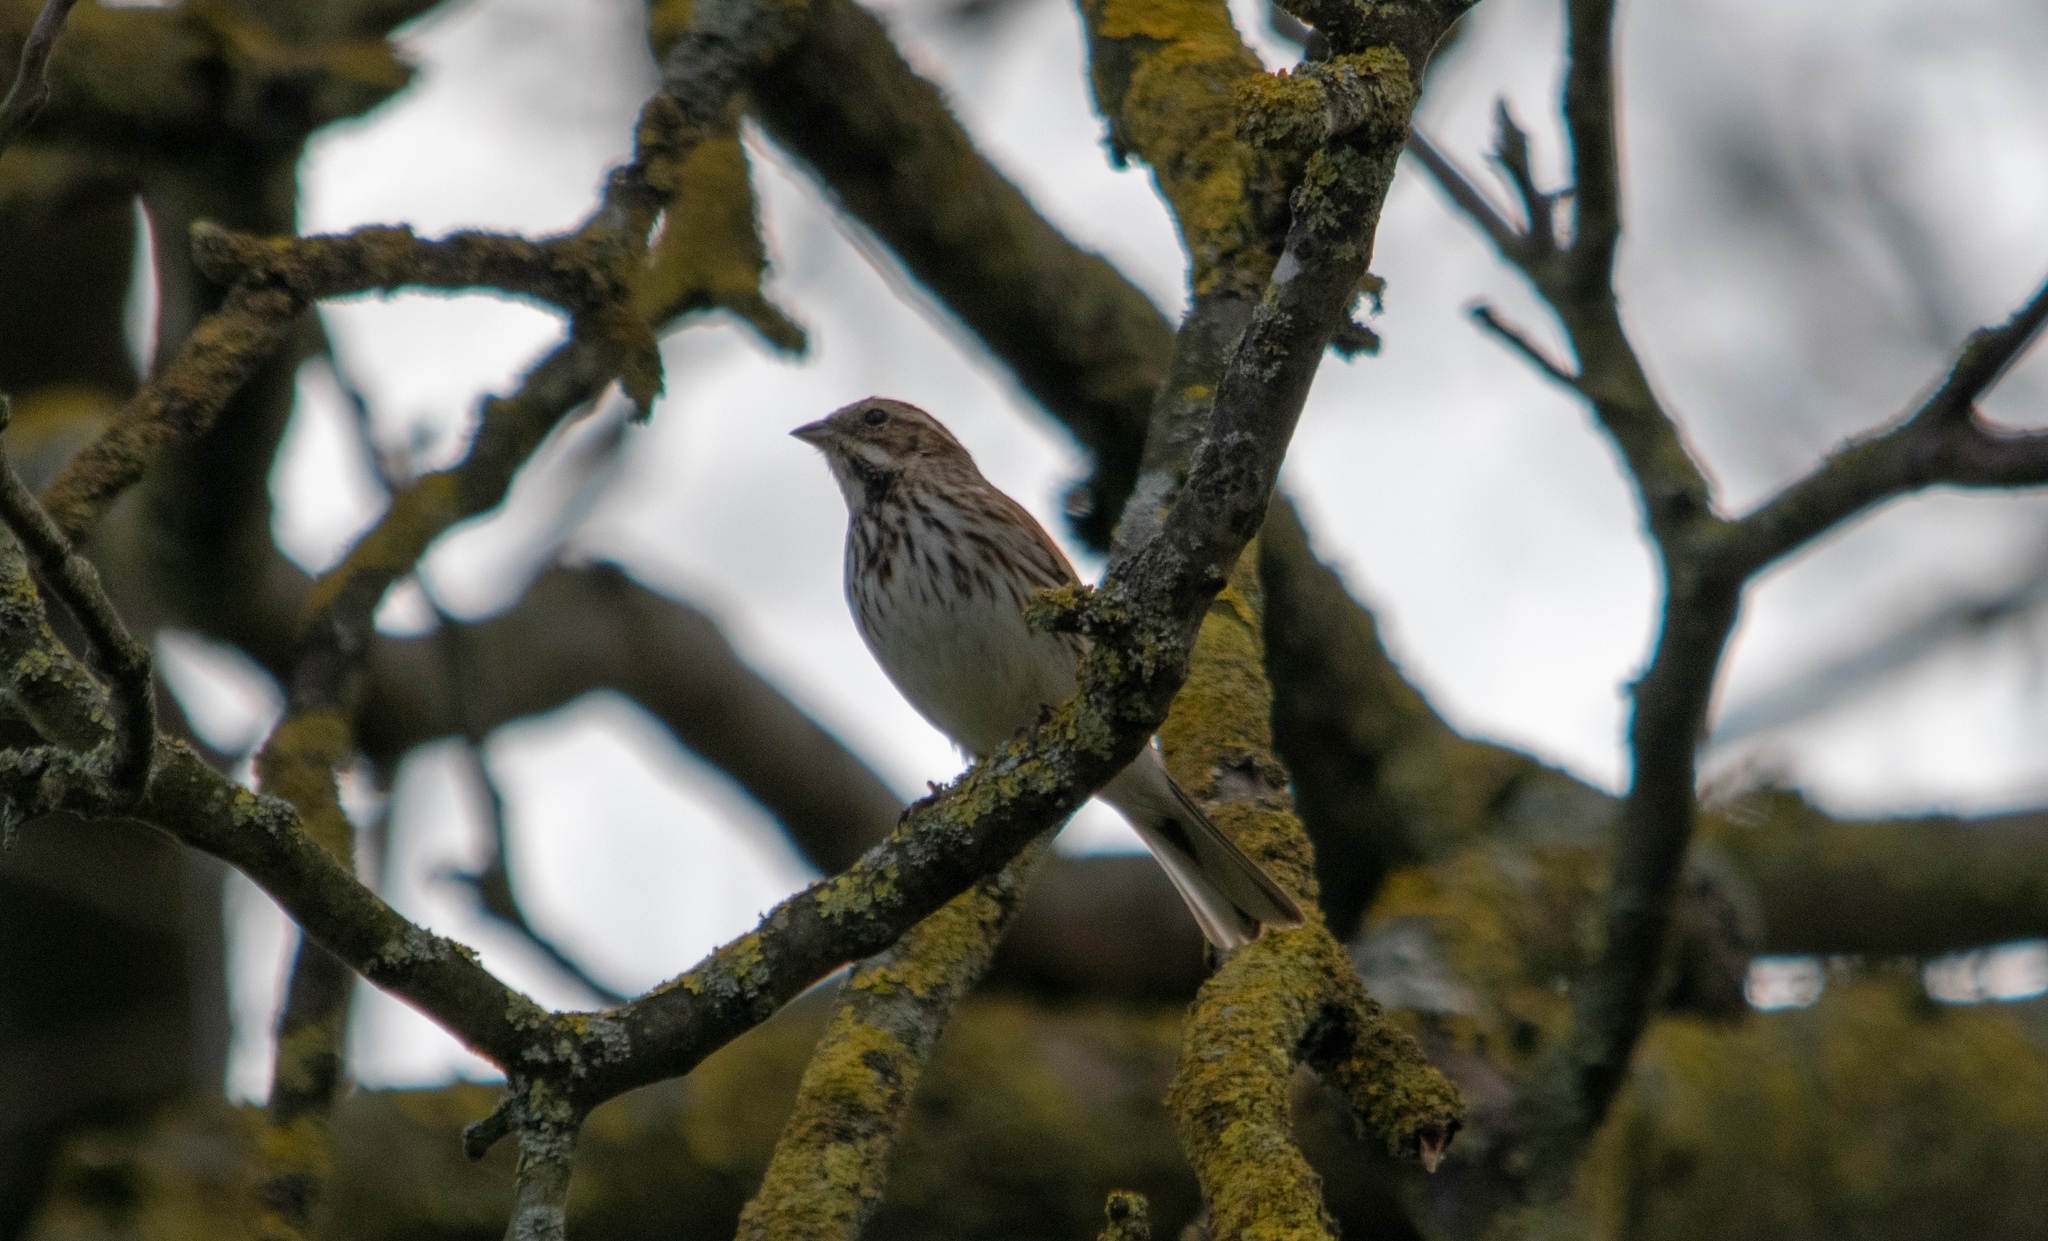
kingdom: Animalia
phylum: Chordata
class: Aves
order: Passeriformes
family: Emberizidae
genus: Emberiza
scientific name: Emberiza schoeniclus
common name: Reed bunting
